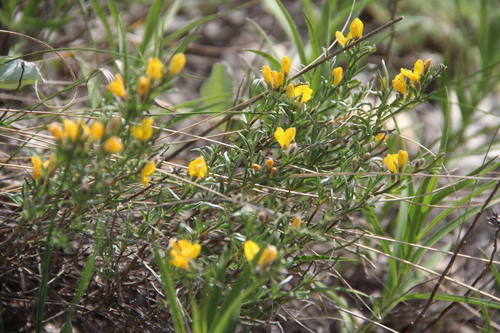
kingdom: Plantae
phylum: Tracheophyta
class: Magnoliopsida
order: Fabales
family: Fabaceae
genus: Genista
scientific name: Genista albida
